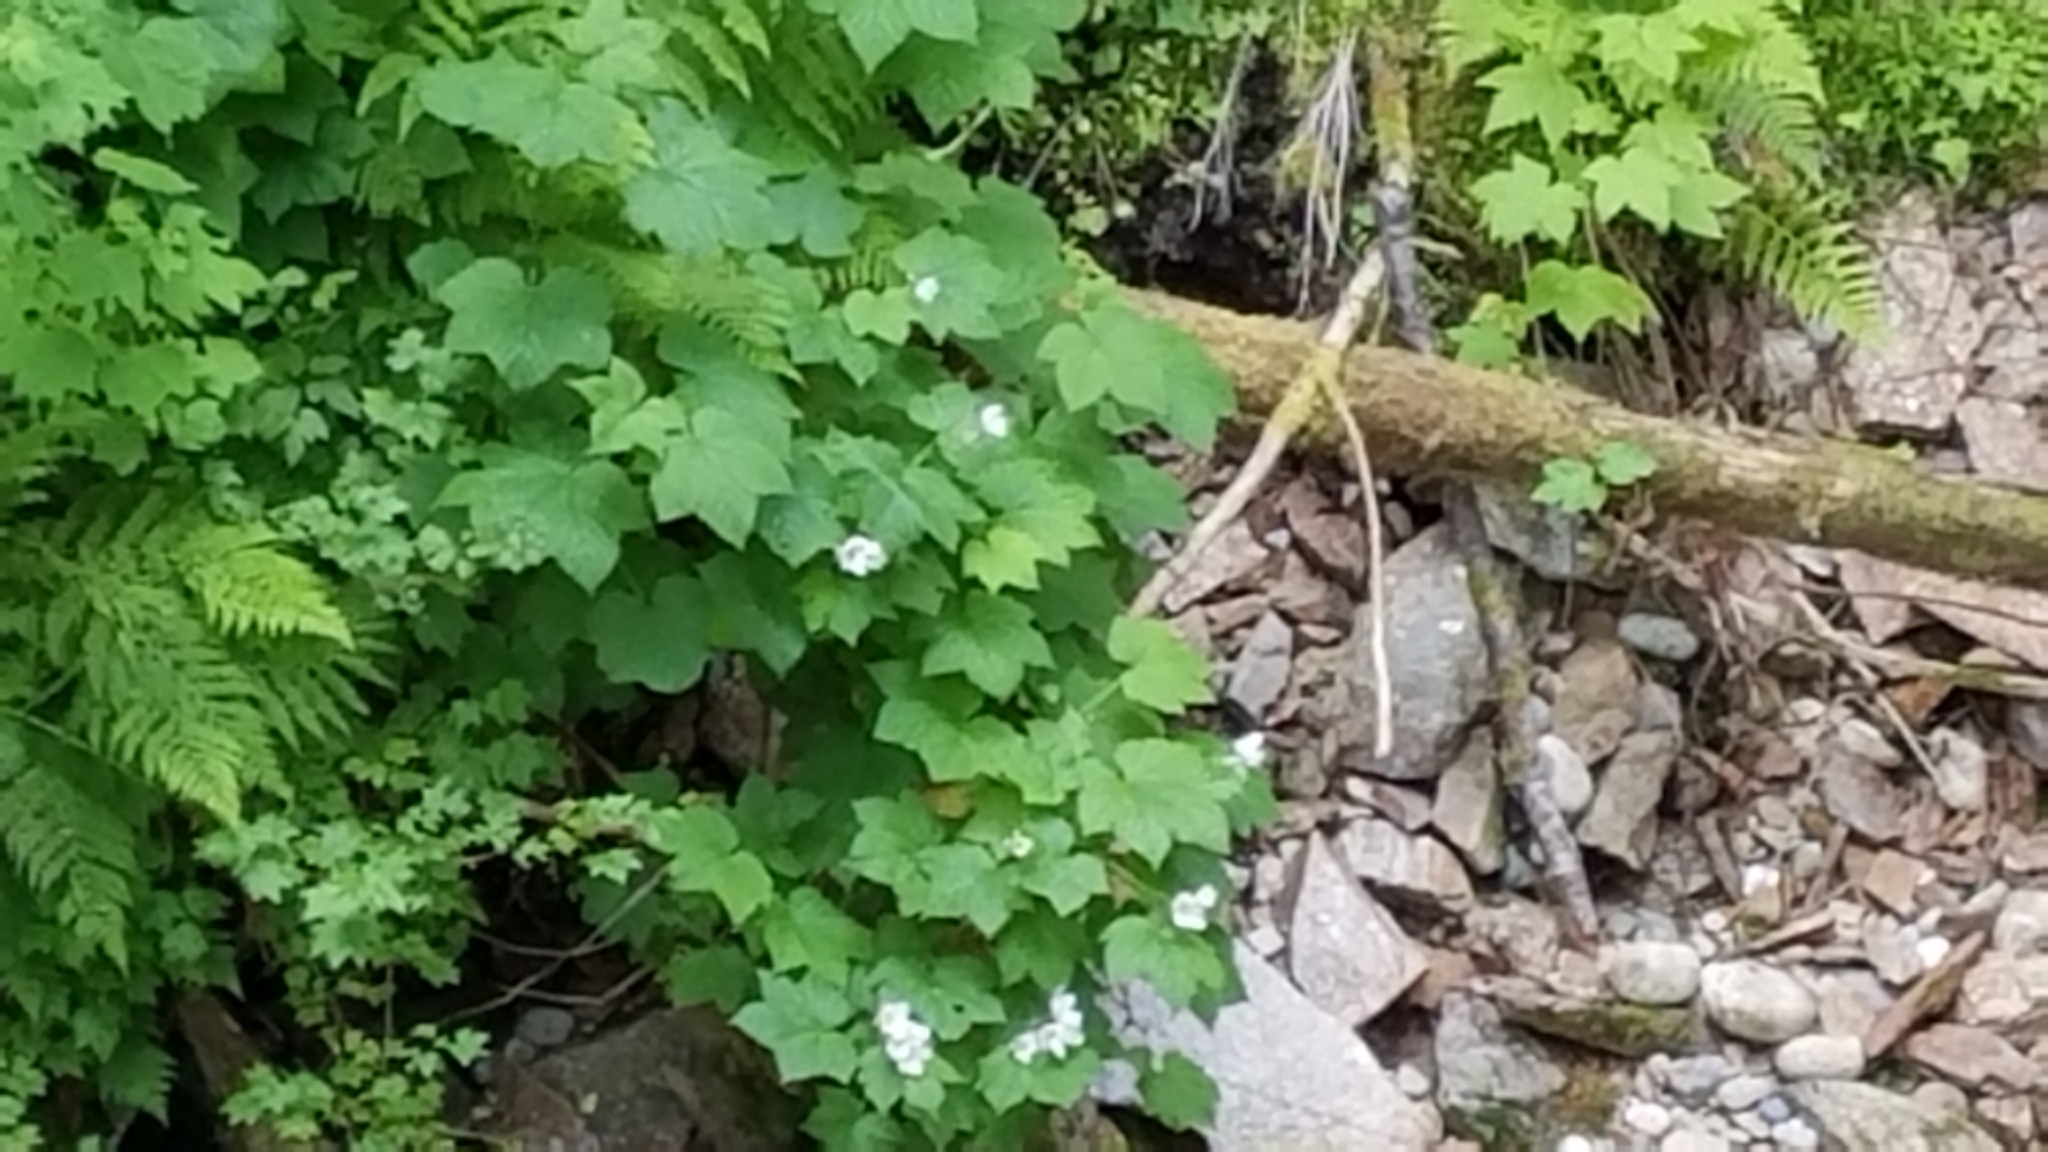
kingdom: Plantae
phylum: Tracheophyta
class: Magnoliopsida
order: Rosales
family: Rosaceae
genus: Rubus
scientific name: Rubus parviflorus
